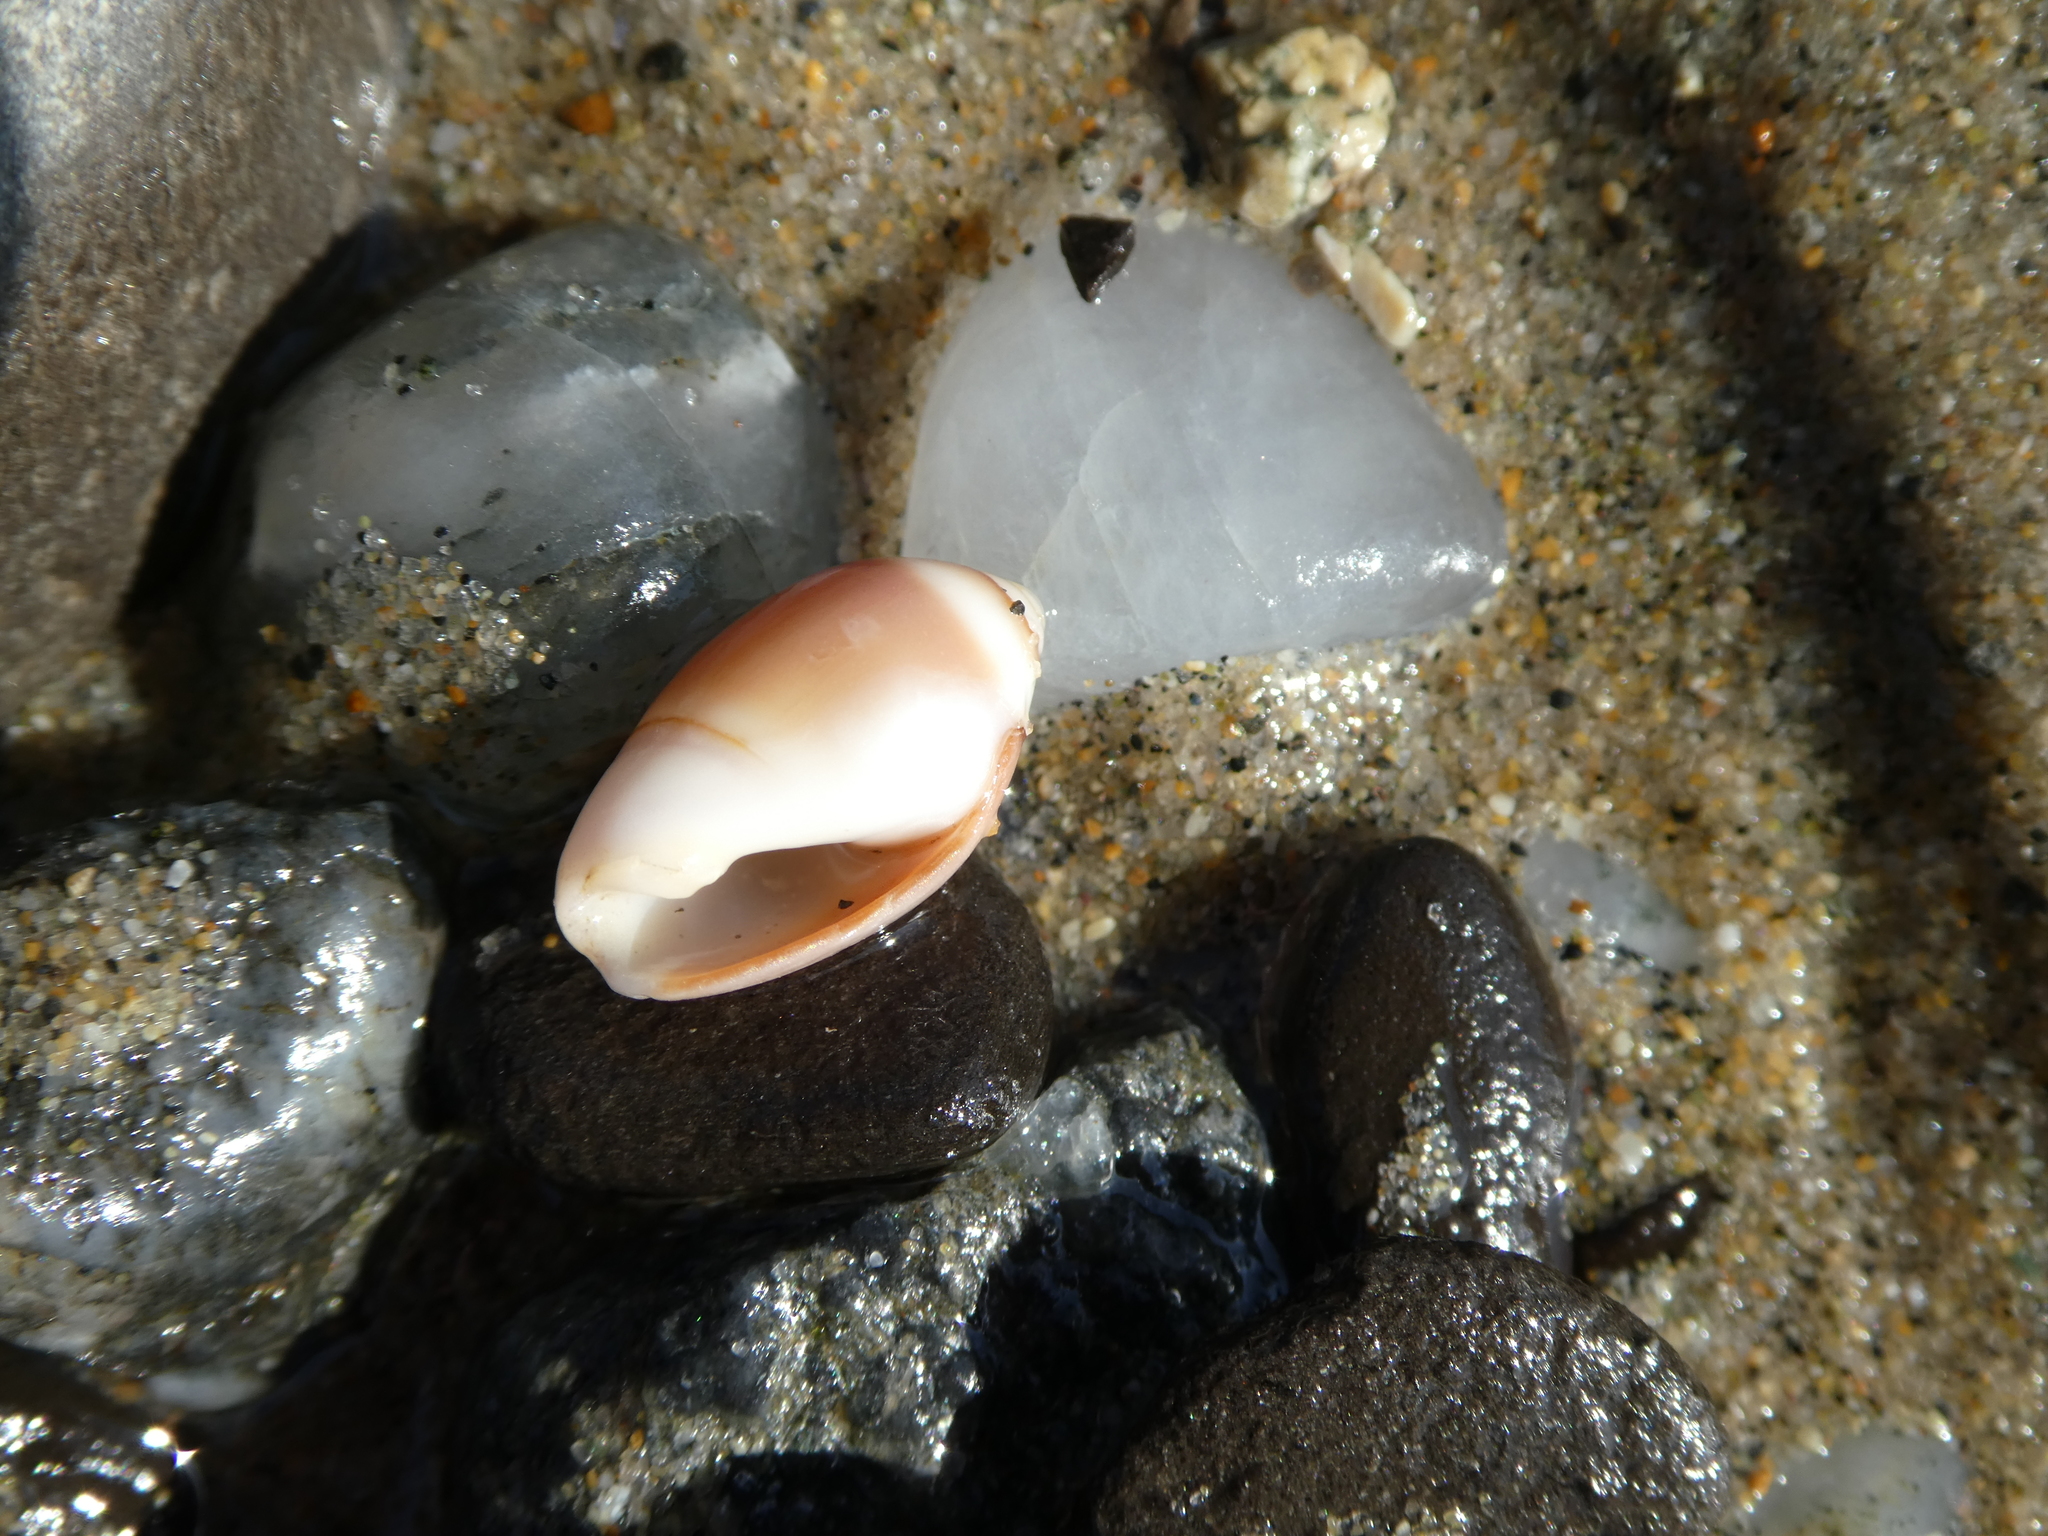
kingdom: Animalia
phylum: Mollusca
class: Gastropoda
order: Neogastropoda
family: Olividae
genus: Callianax
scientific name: Callianax biplicata
